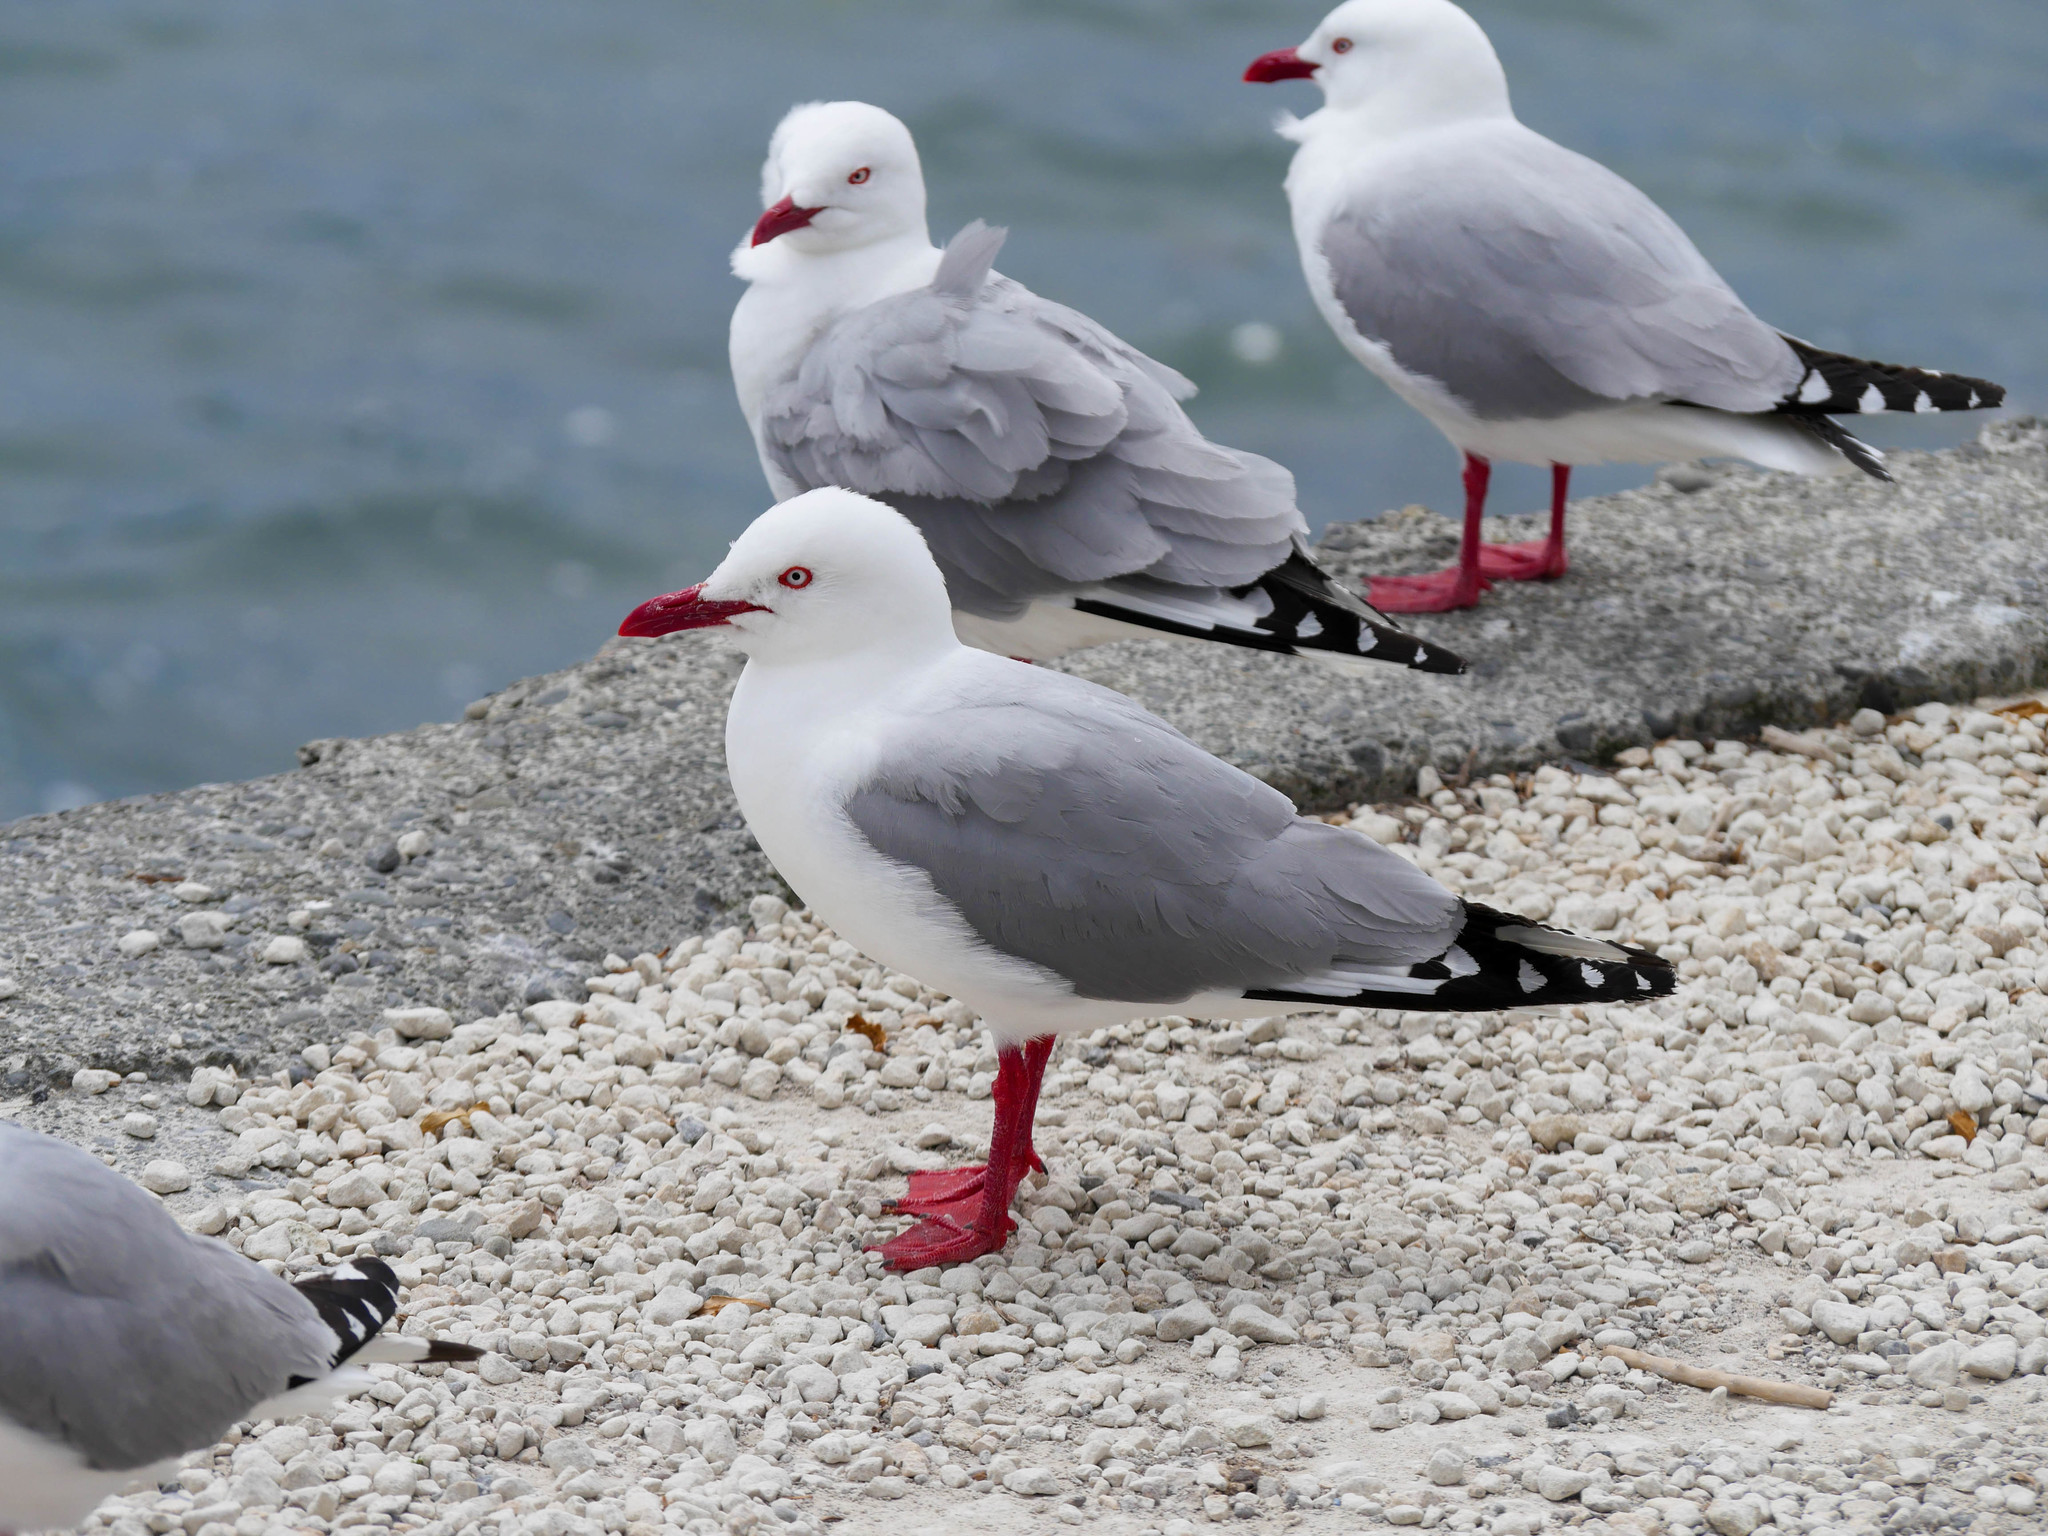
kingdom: Animalia
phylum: Chordata
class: Aves
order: Charadriiformes
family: Laridae
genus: Chroicocephalus
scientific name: Chroicocephalus novaehollandiae
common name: Silver gull
